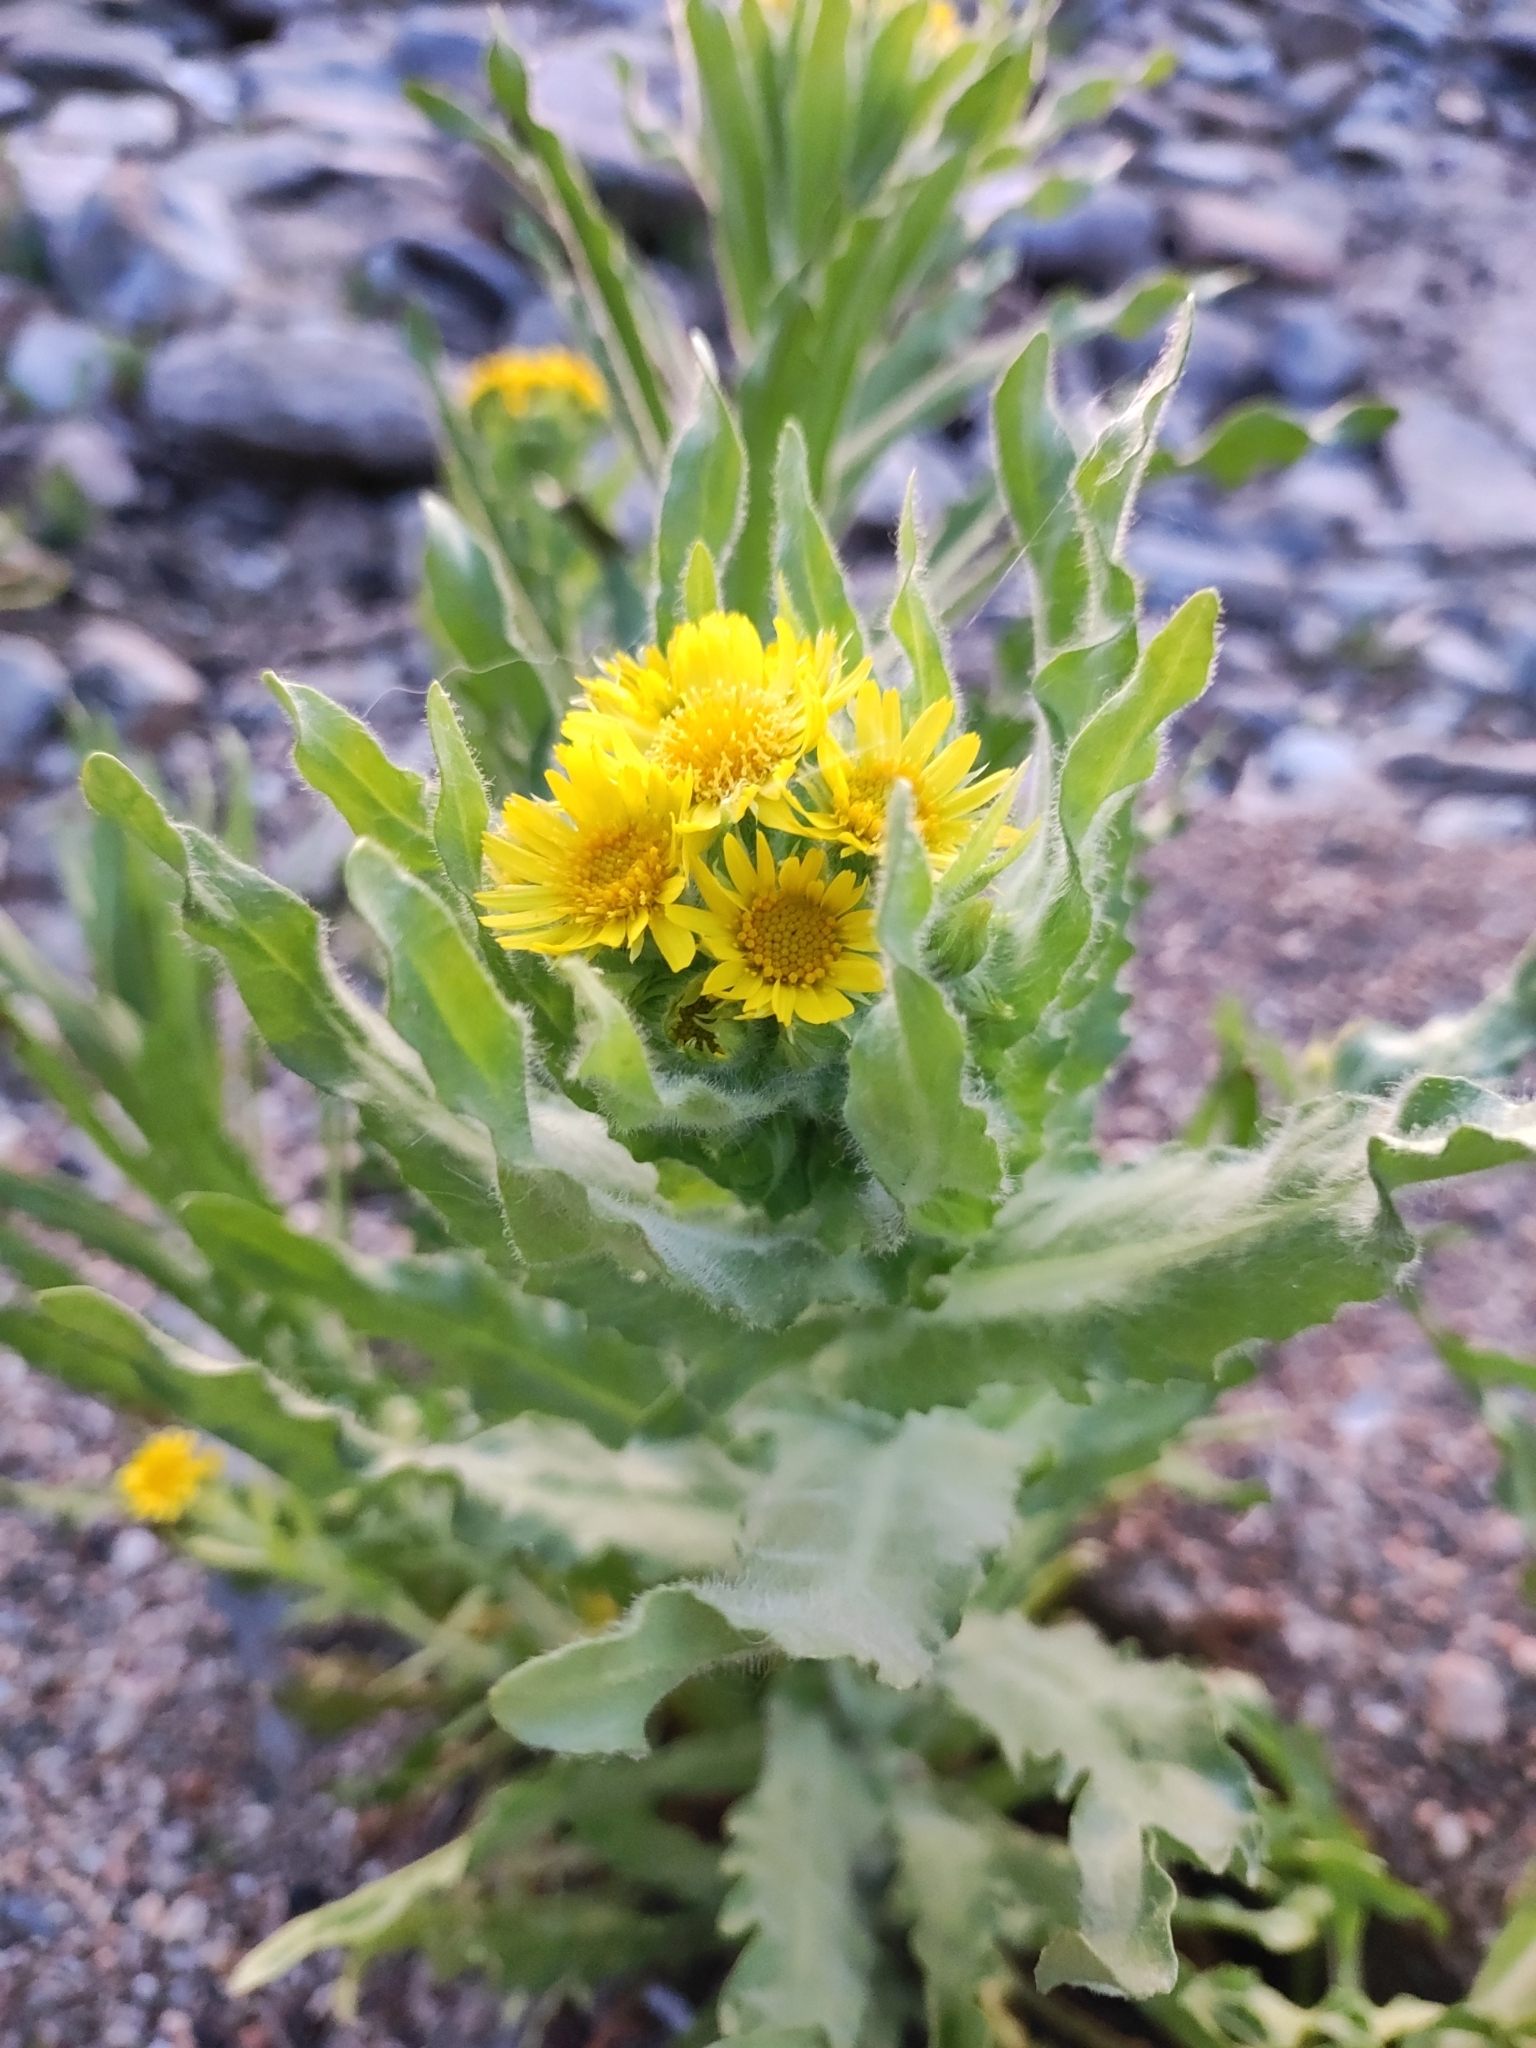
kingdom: Plantae
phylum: Tracheophyta
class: Magnoliopsida
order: Asterales
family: Asteraceae
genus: Tephroseris
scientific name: Tephroseris palustris
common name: Marsh fleawort
